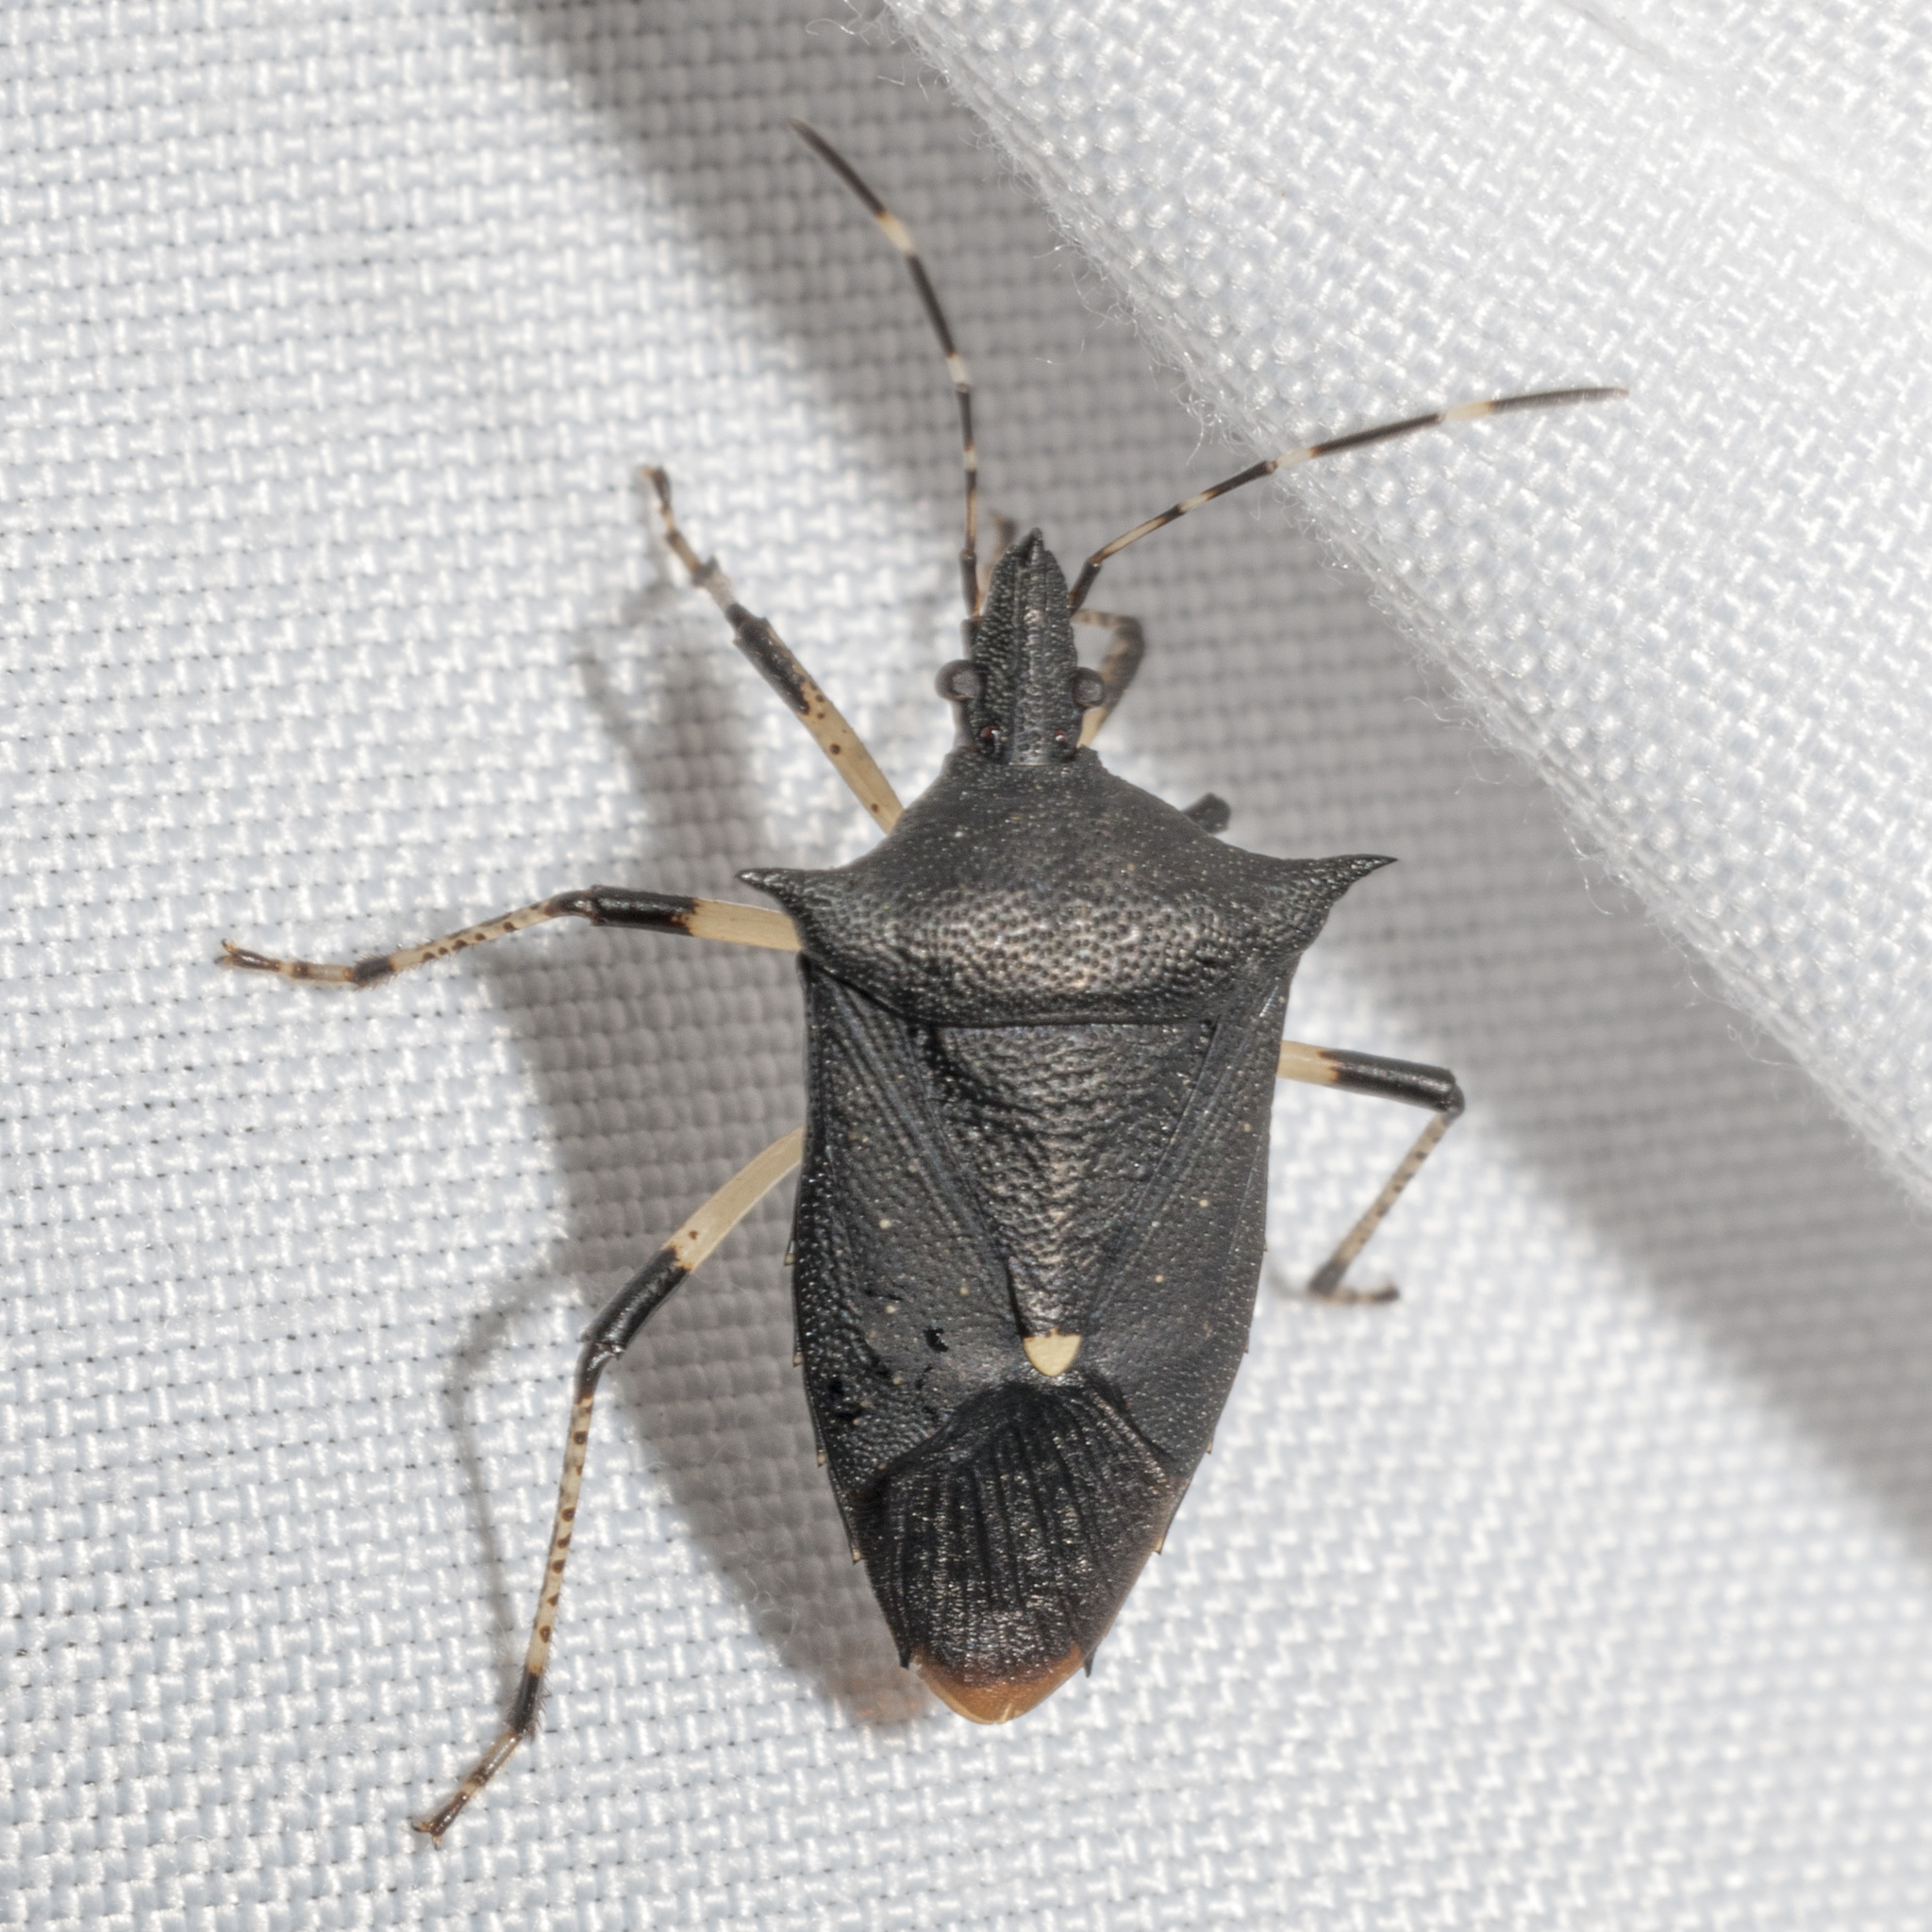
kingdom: Animalia
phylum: Arthropoda
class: Insecta
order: Hemiptera
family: Pentatomidae
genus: Proxys
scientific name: Proxys punctulatus
